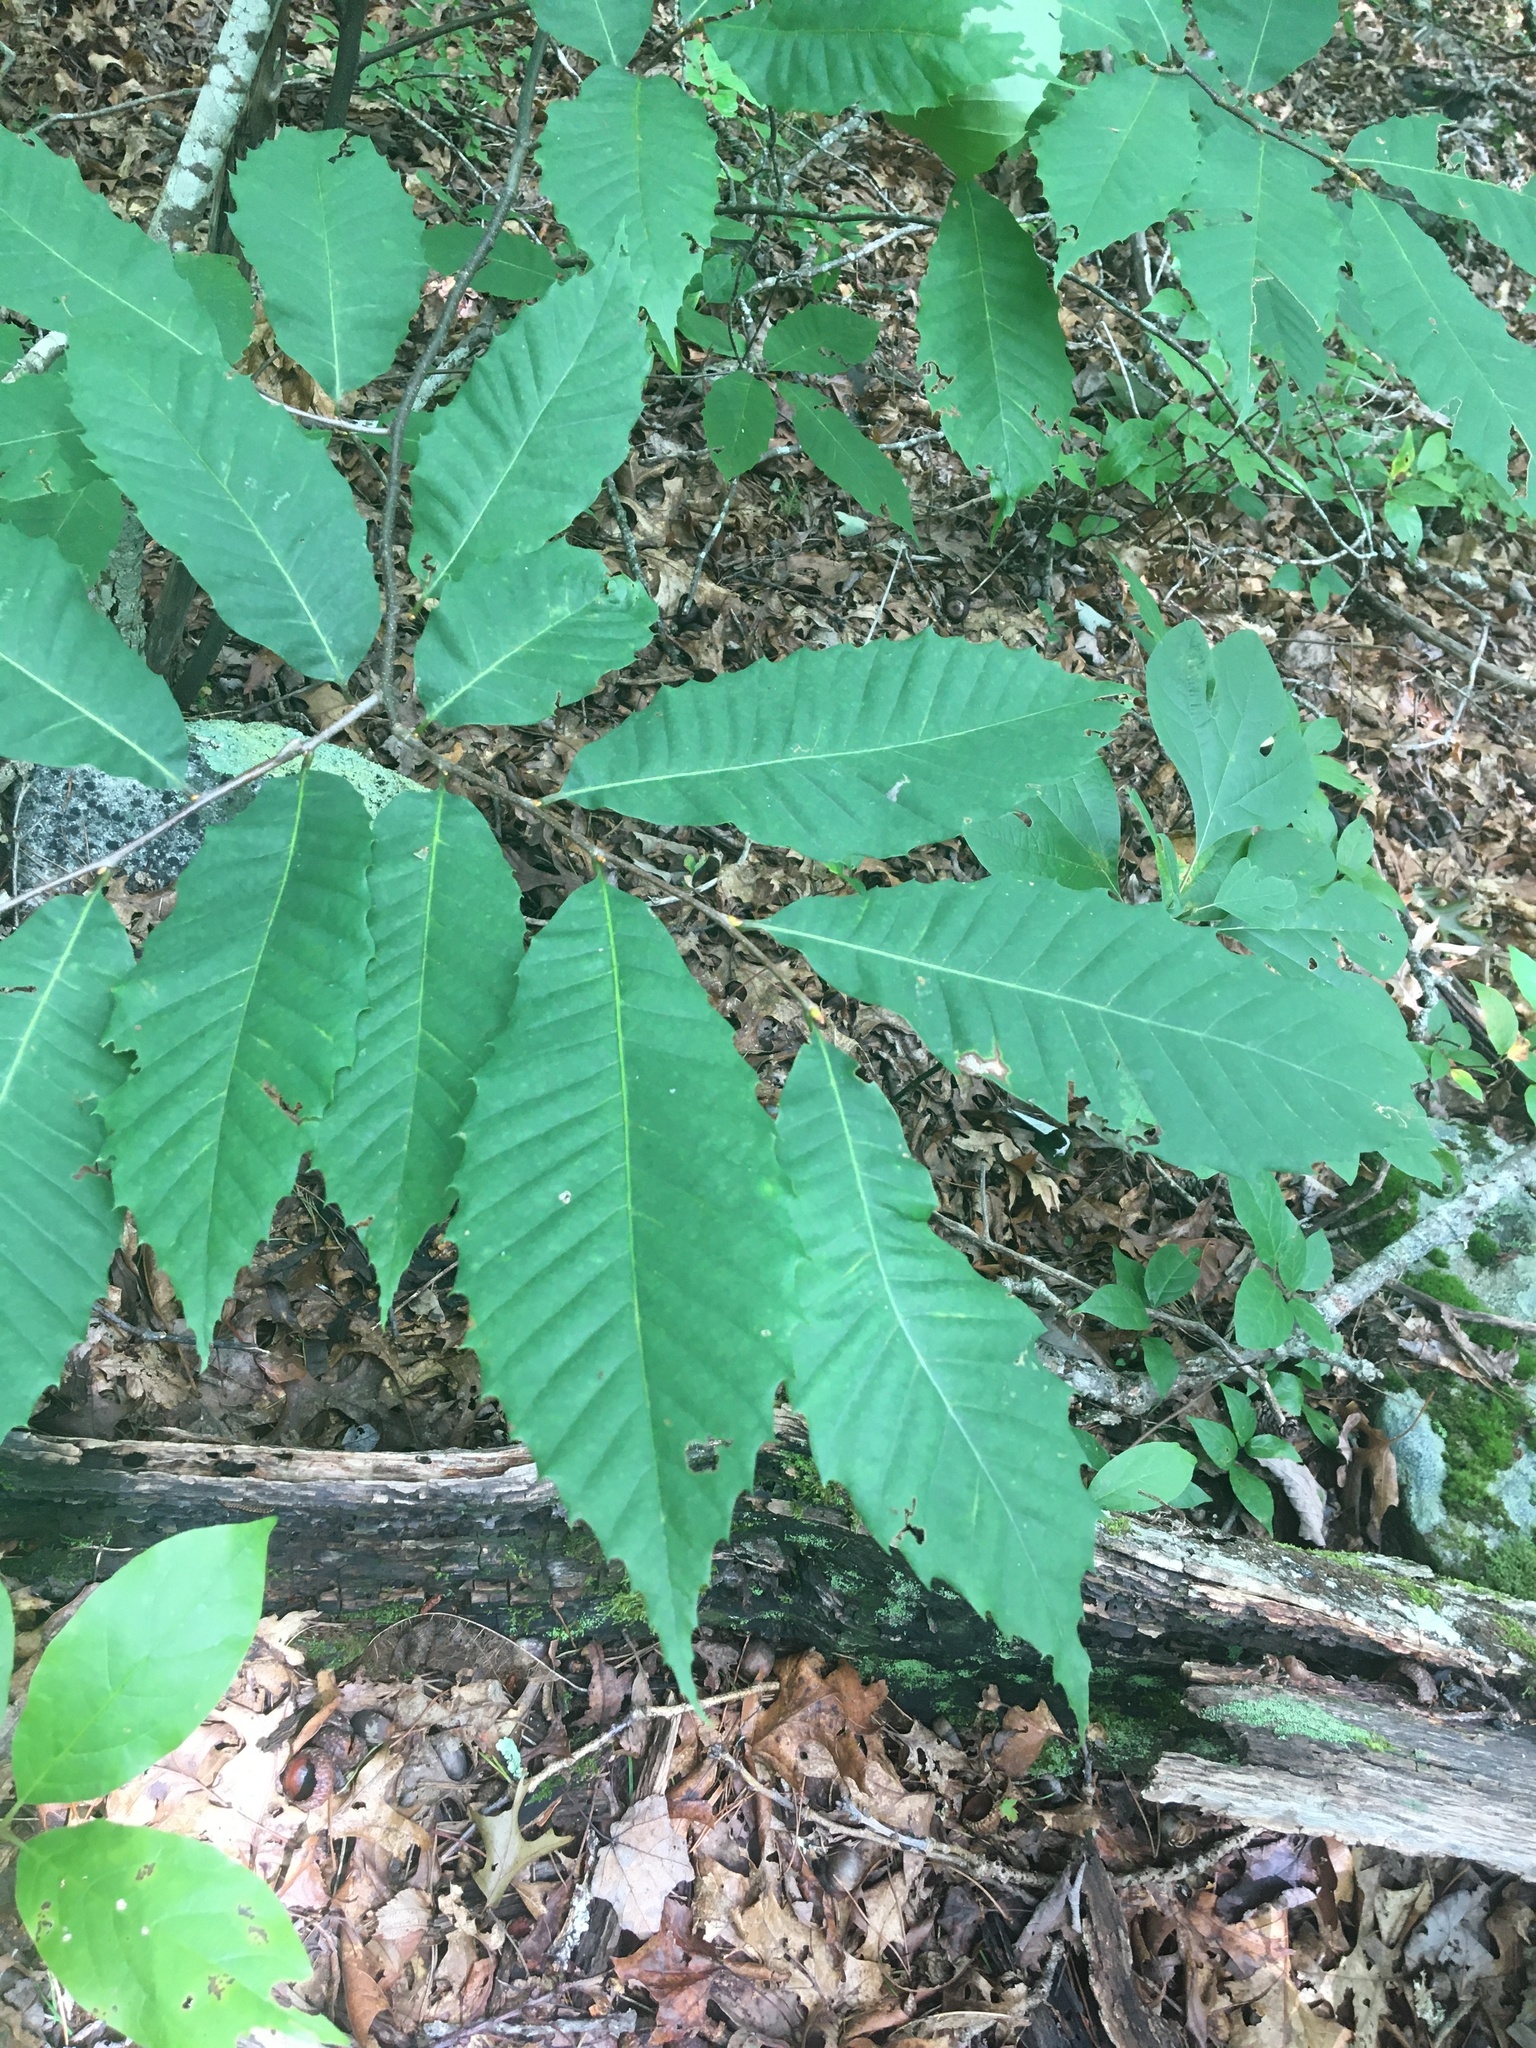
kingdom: Plantae
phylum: Tracheophyta
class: Magnoliopsida
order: Fagales
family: Fagaceae
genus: Castanea
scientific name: Castanea dentata
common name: American chestnut
